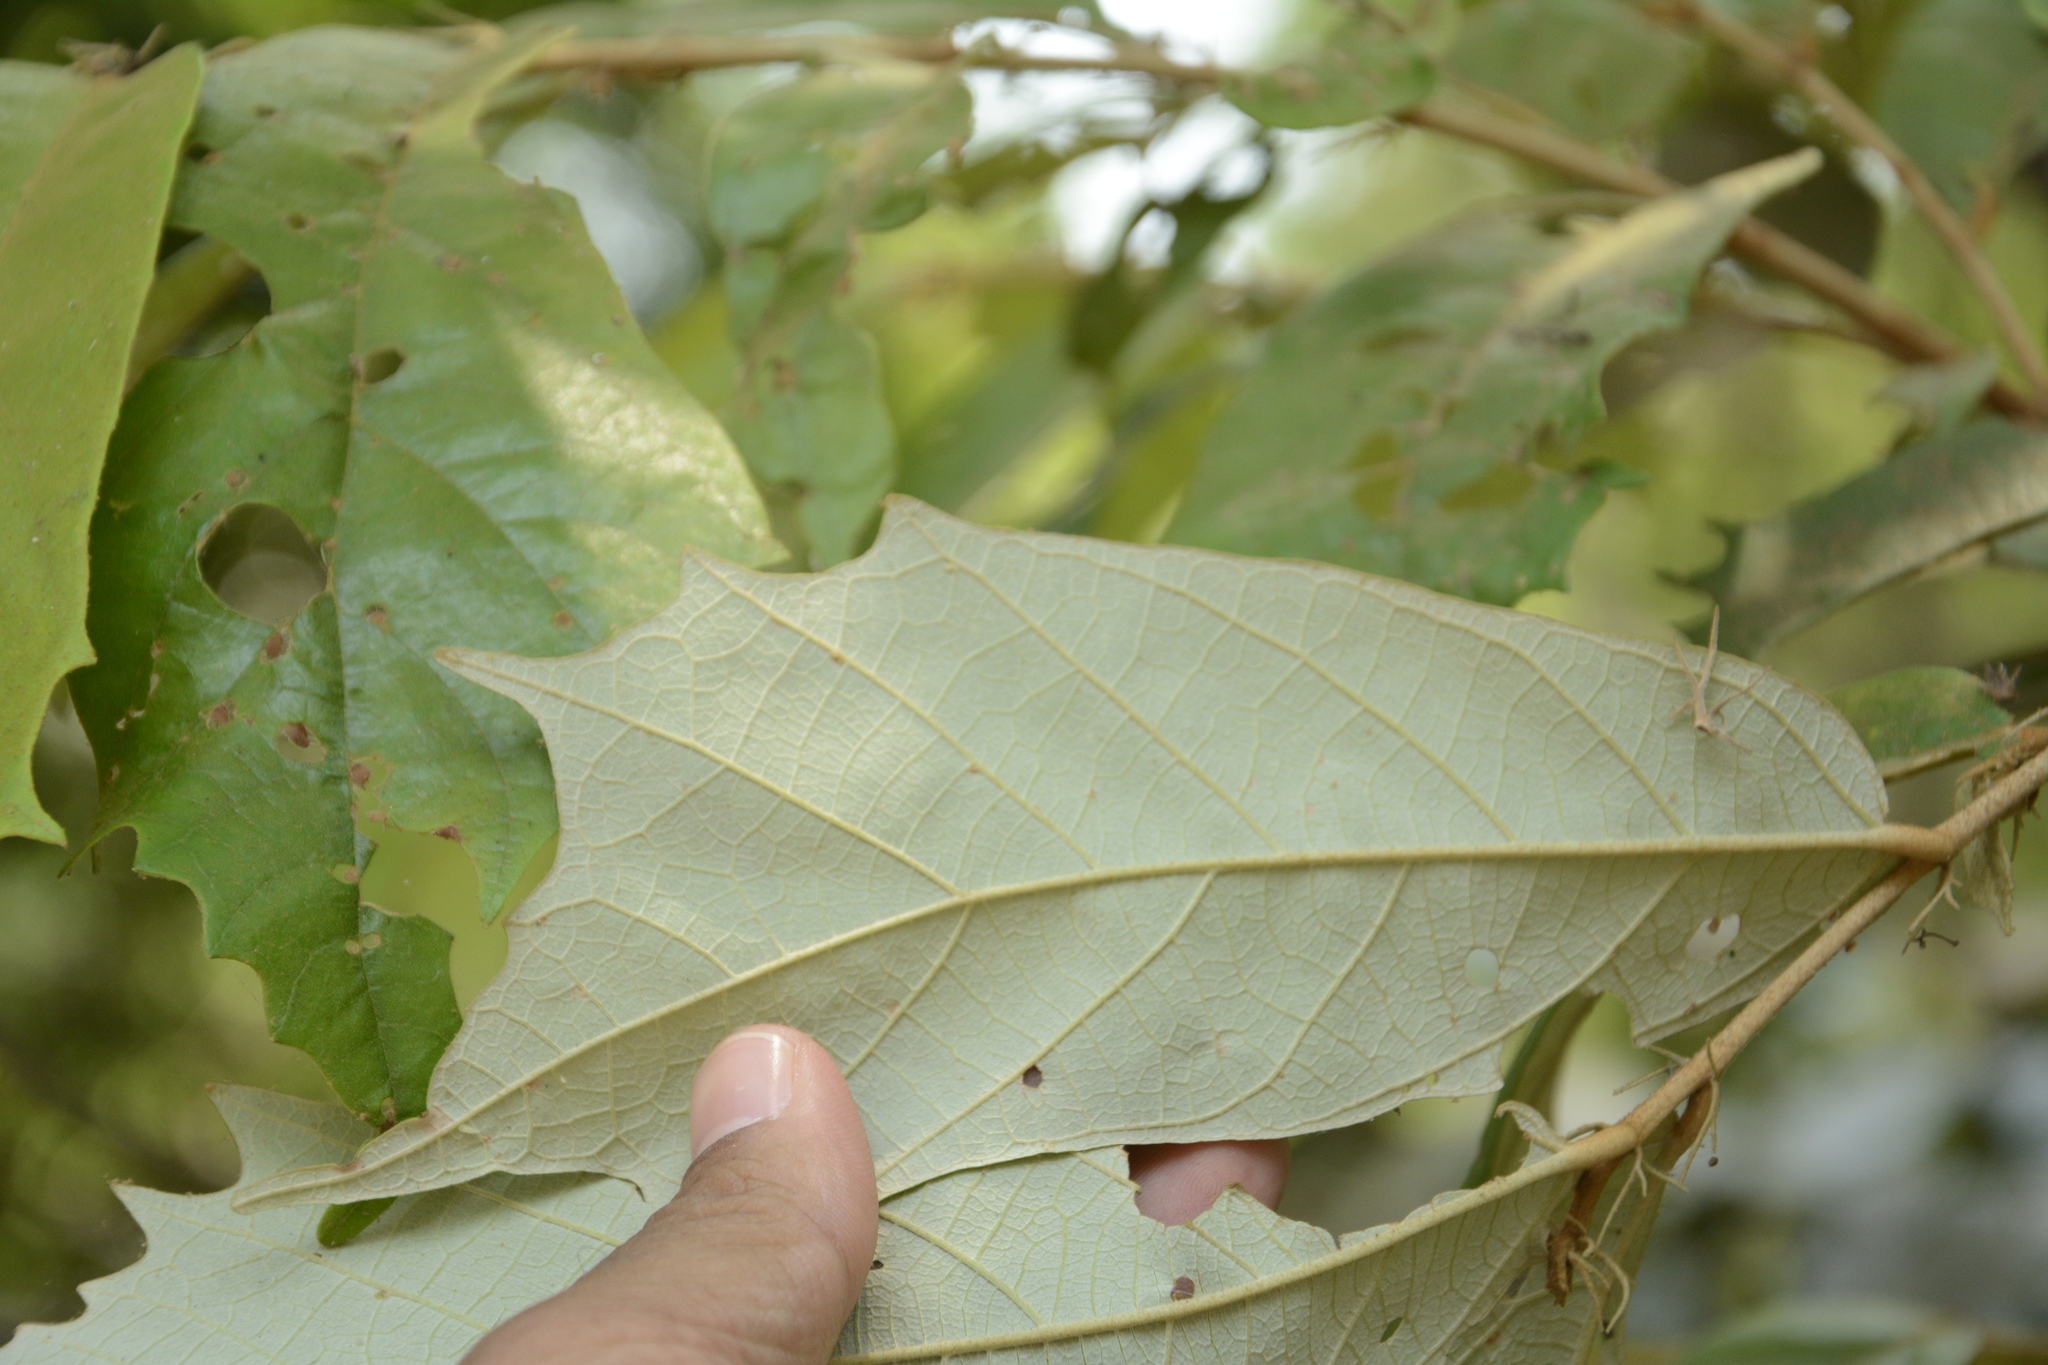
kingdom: Plantae
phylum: Tracheophyta
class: Magnoliopsida
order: Malvales
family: Malvaceae
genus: Pterospermum
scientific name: Pterospermum reticulatum
